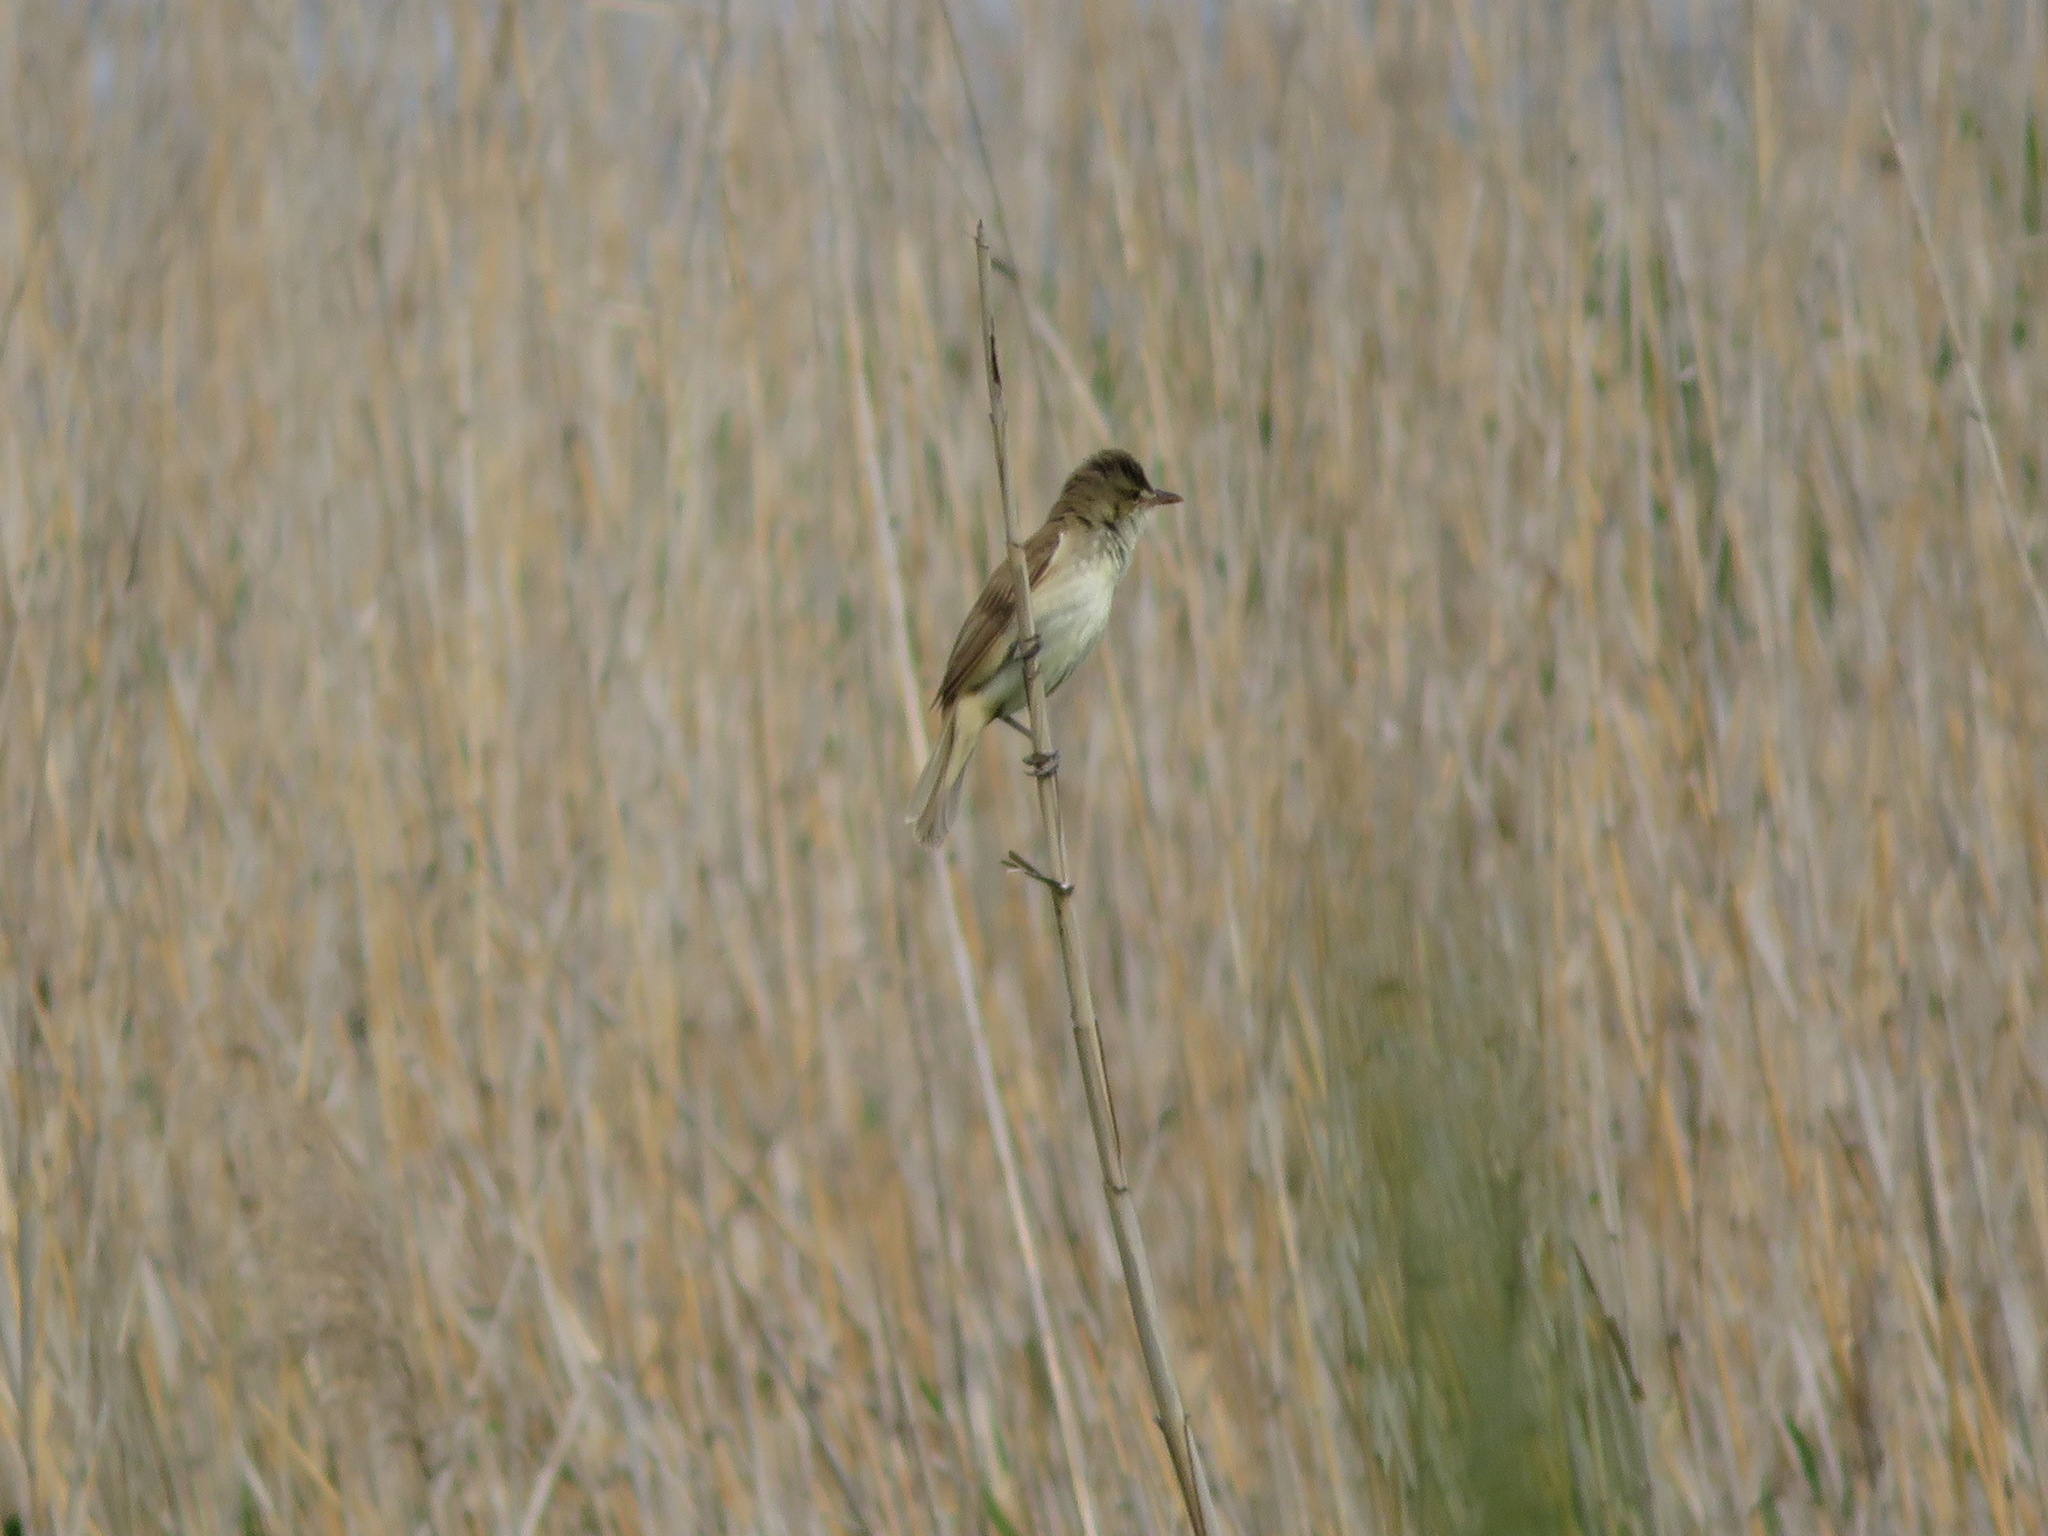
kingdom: Animalia
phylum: Chordata
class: Aves
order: Passeriformes
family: Acrocephalidae
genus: Acrocephalus
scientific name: Acrocephalus orientalis
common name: Oriental reed warbler
